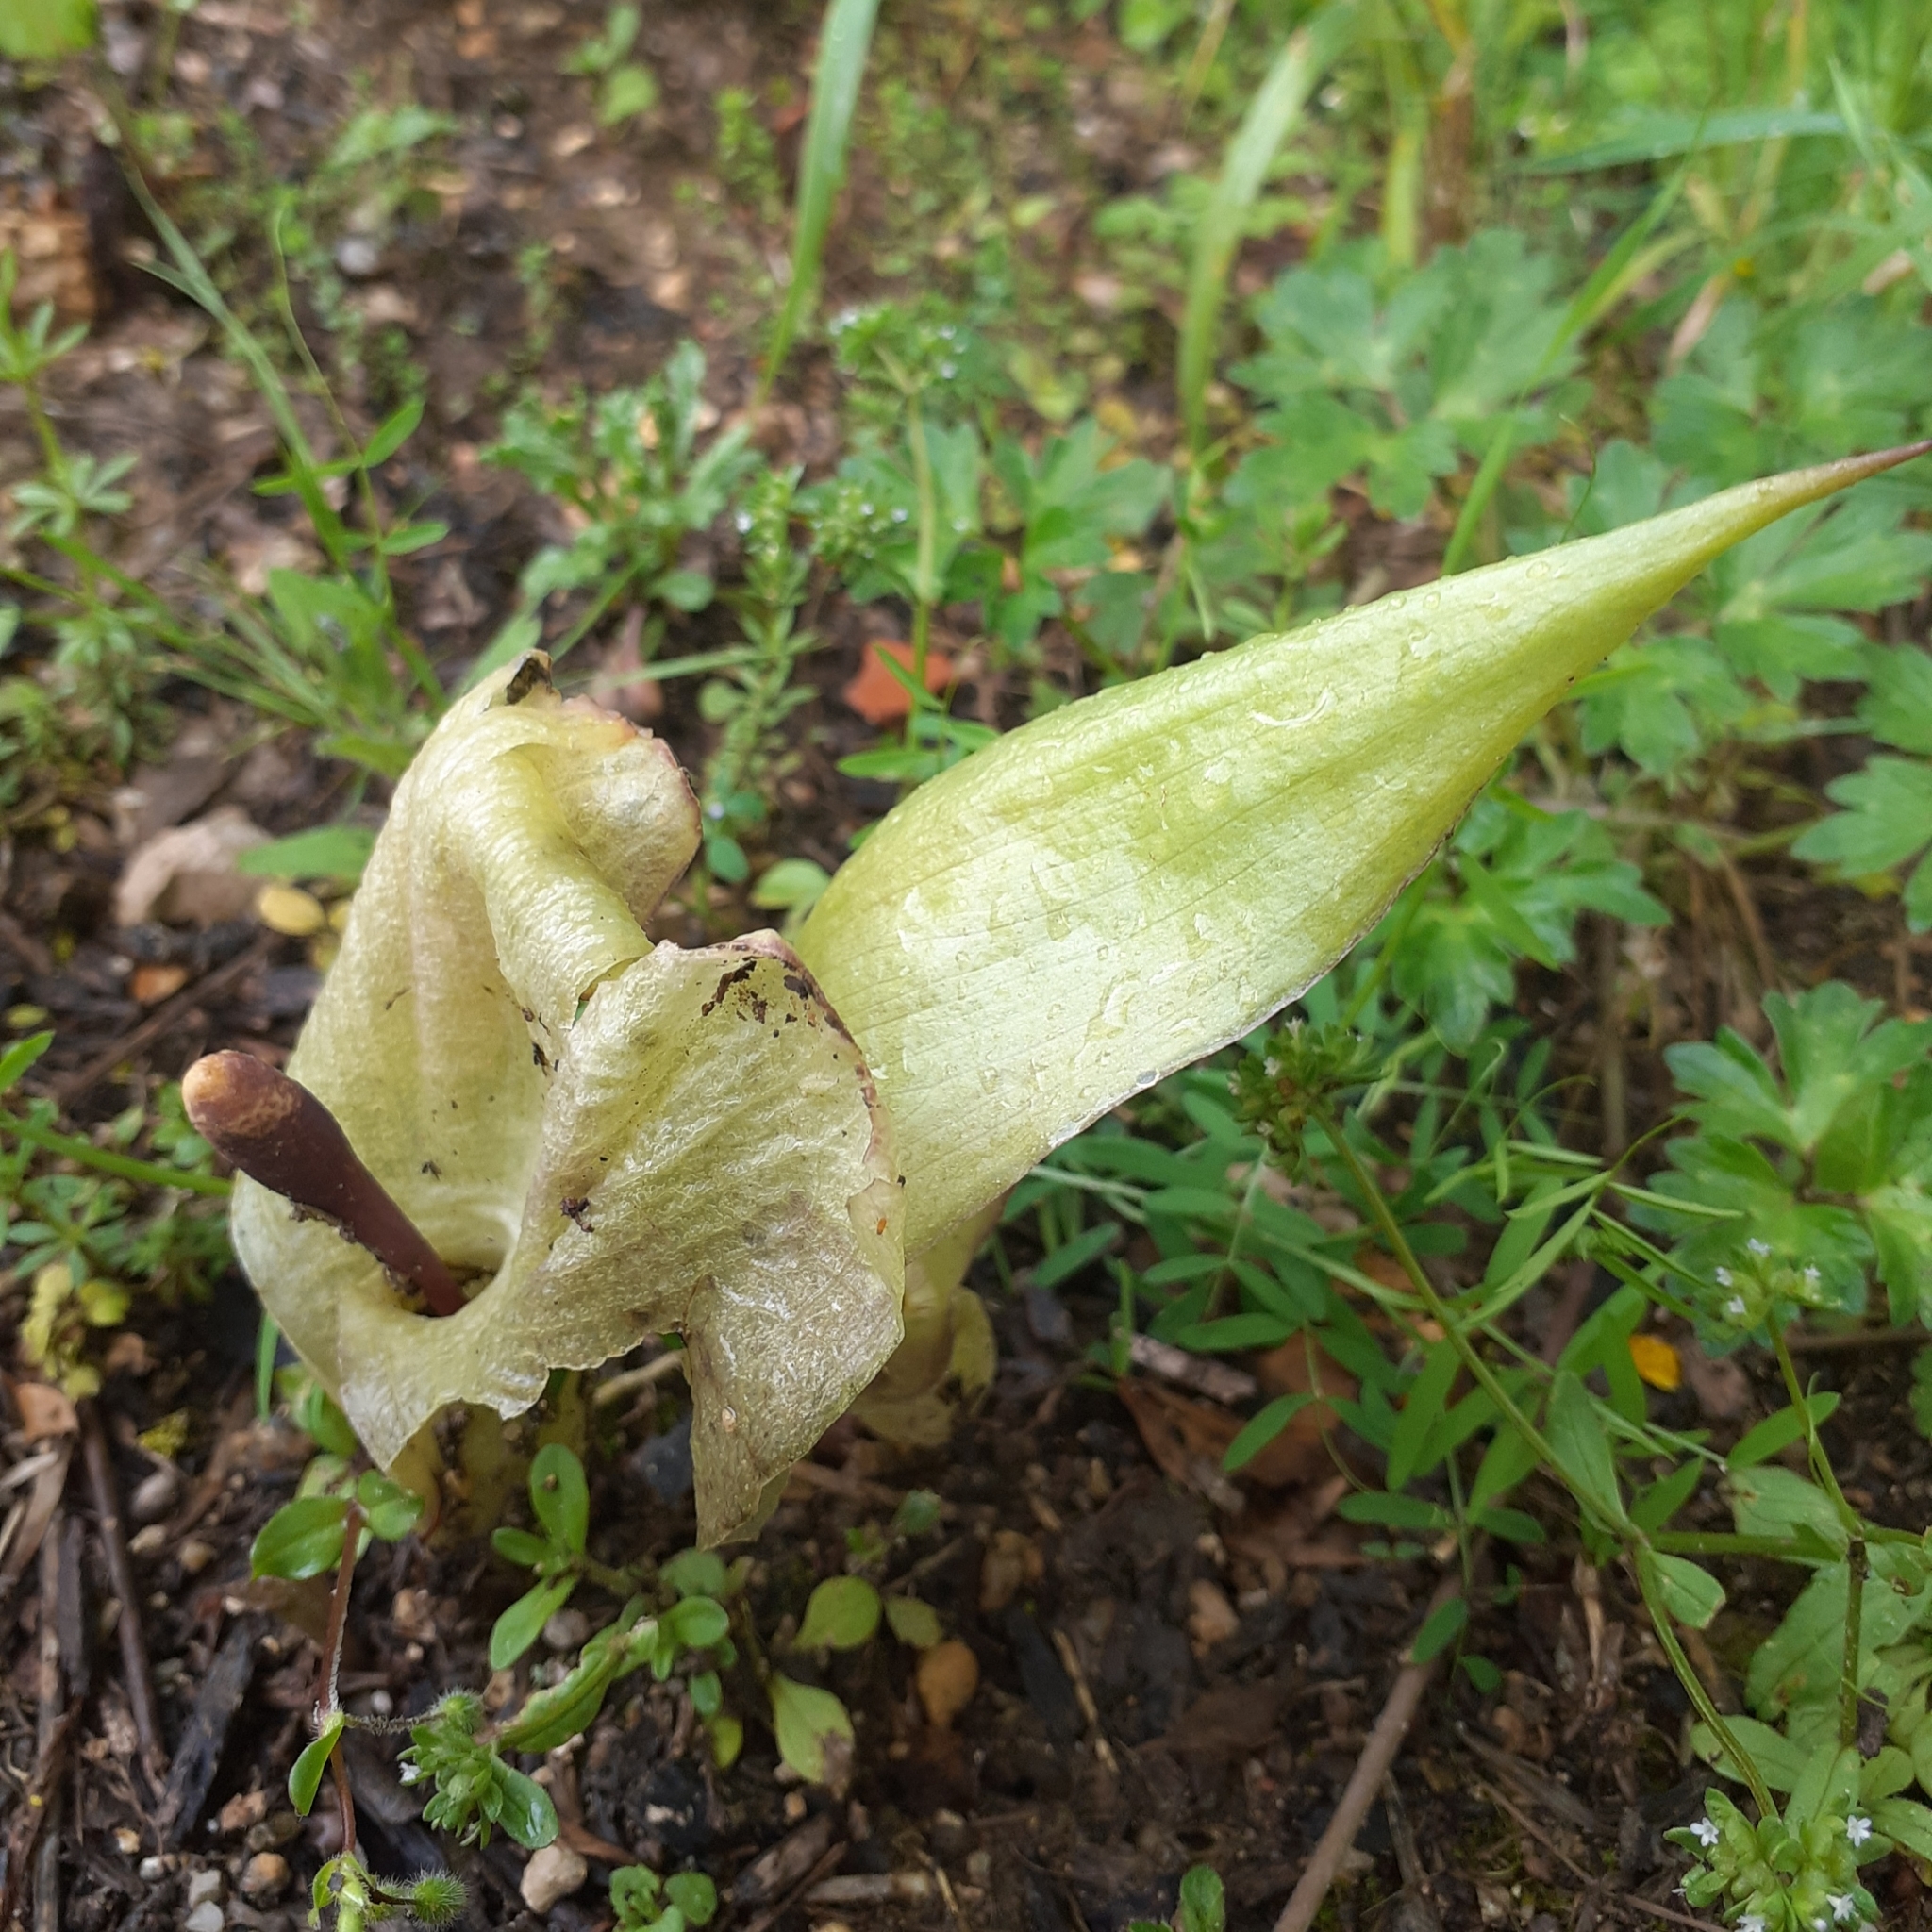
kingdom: Plantae
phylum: Tracheophyta
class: Liliopsida
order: Alismatales
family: Araceae
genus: Arum
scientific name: Arum italicum
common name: Italian lords-and-ladies
